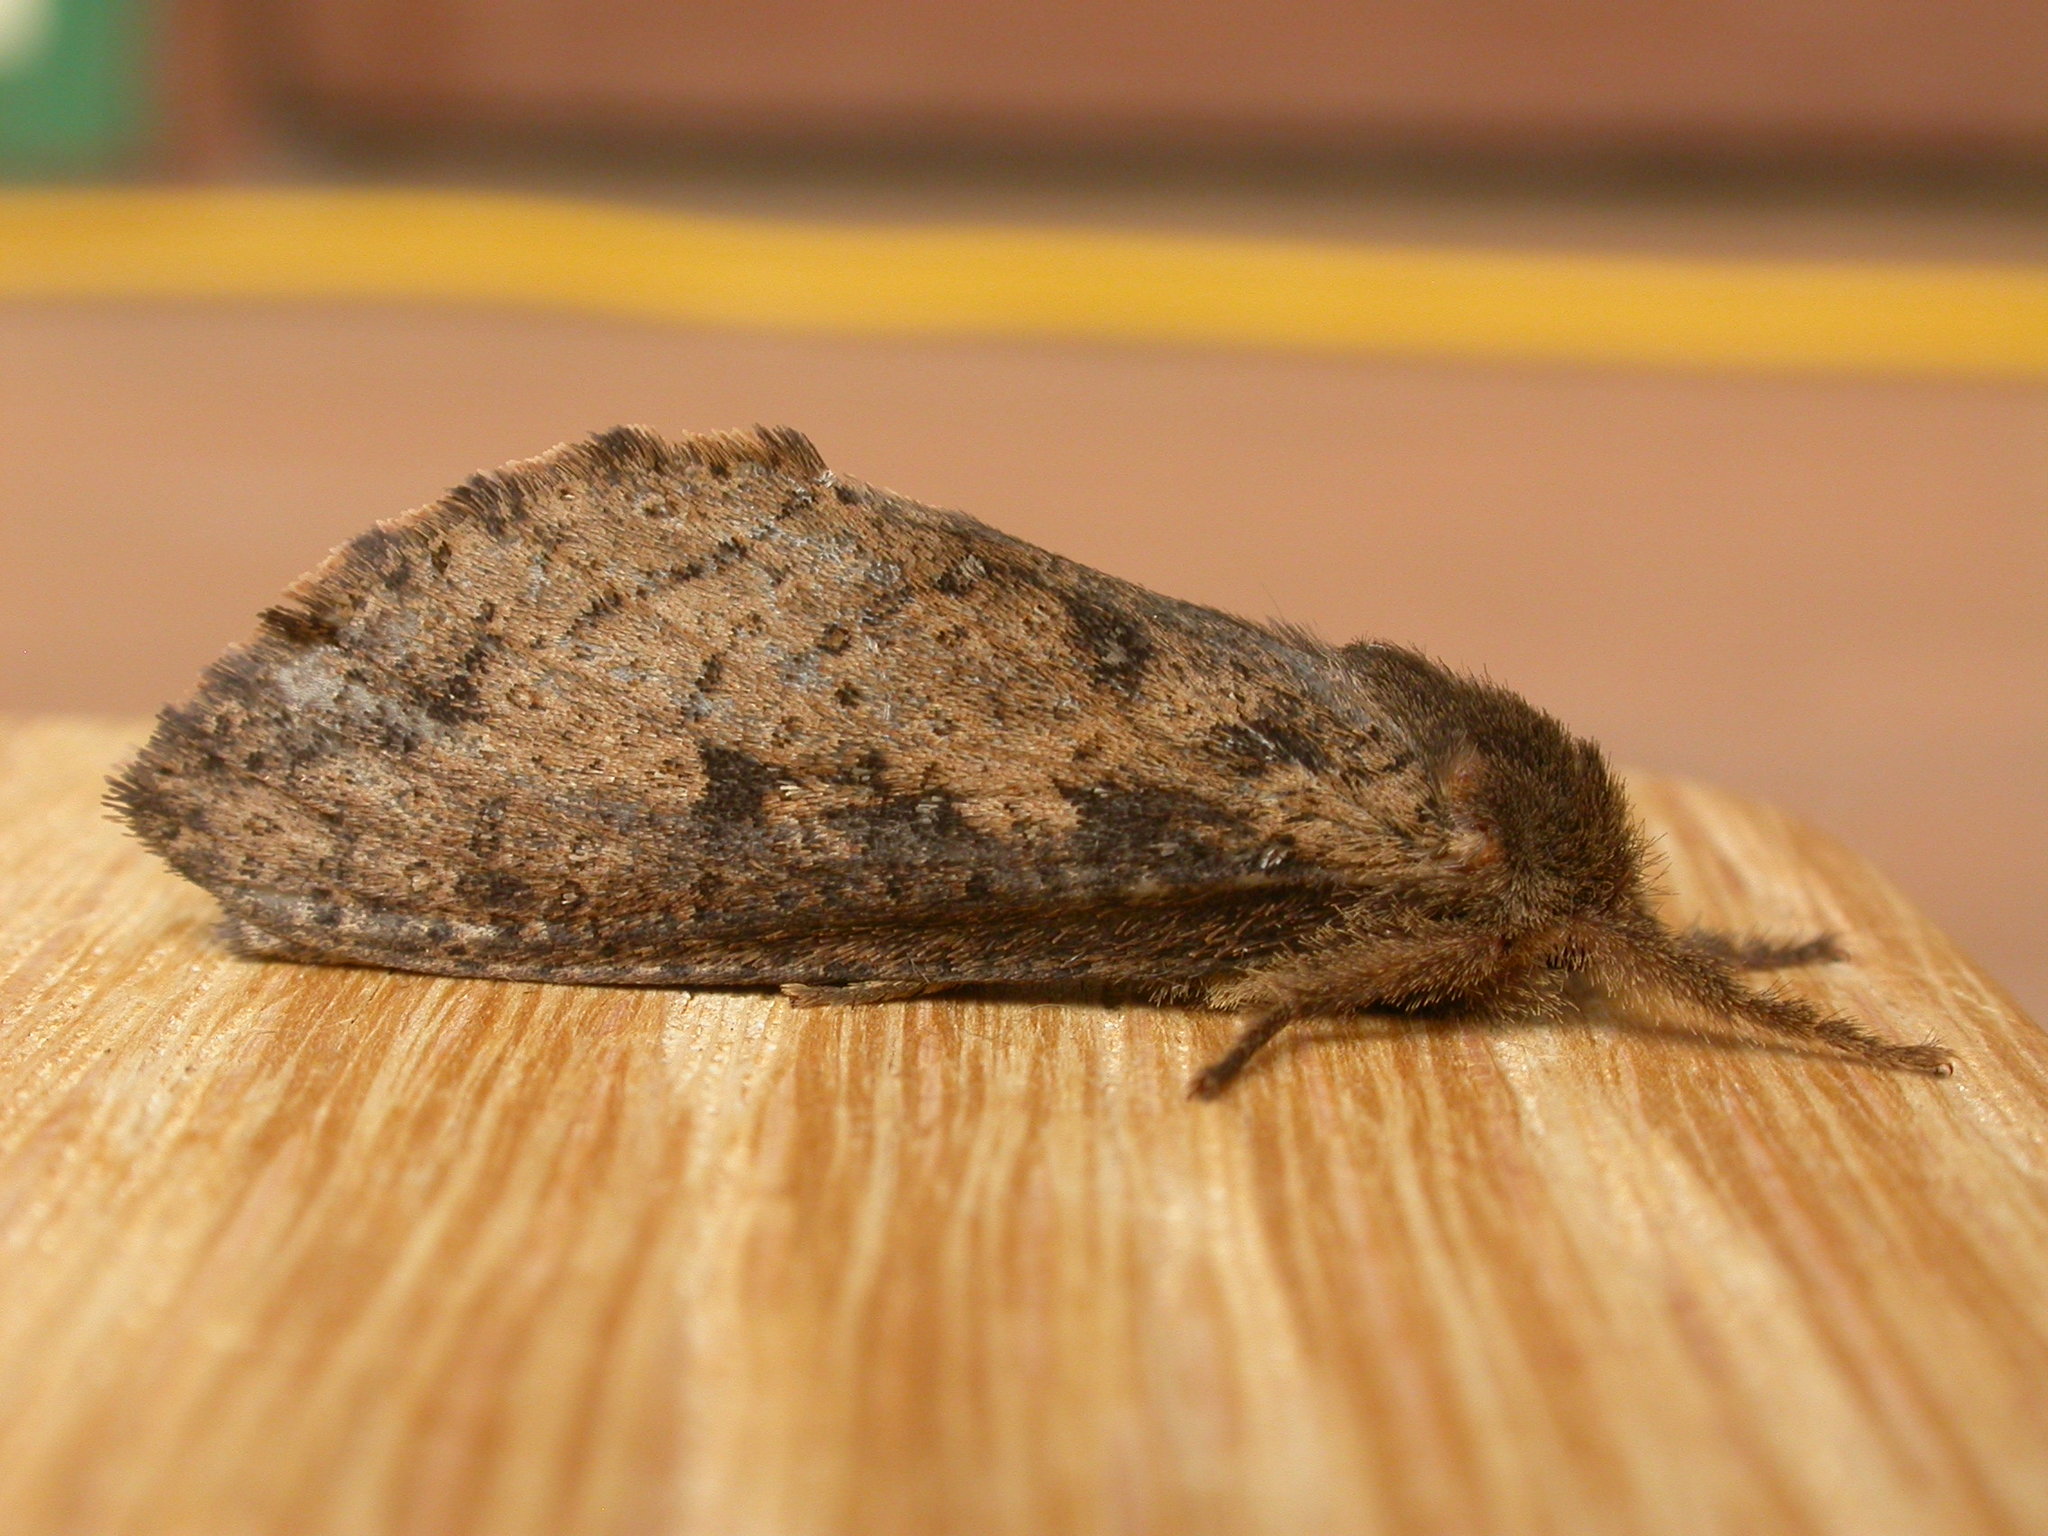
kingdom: Animalia
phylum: Arthropoda
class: Insecta
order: Lepidoptera
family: Hepialidae
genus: Oncopera
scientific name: Oncopera brunneata
